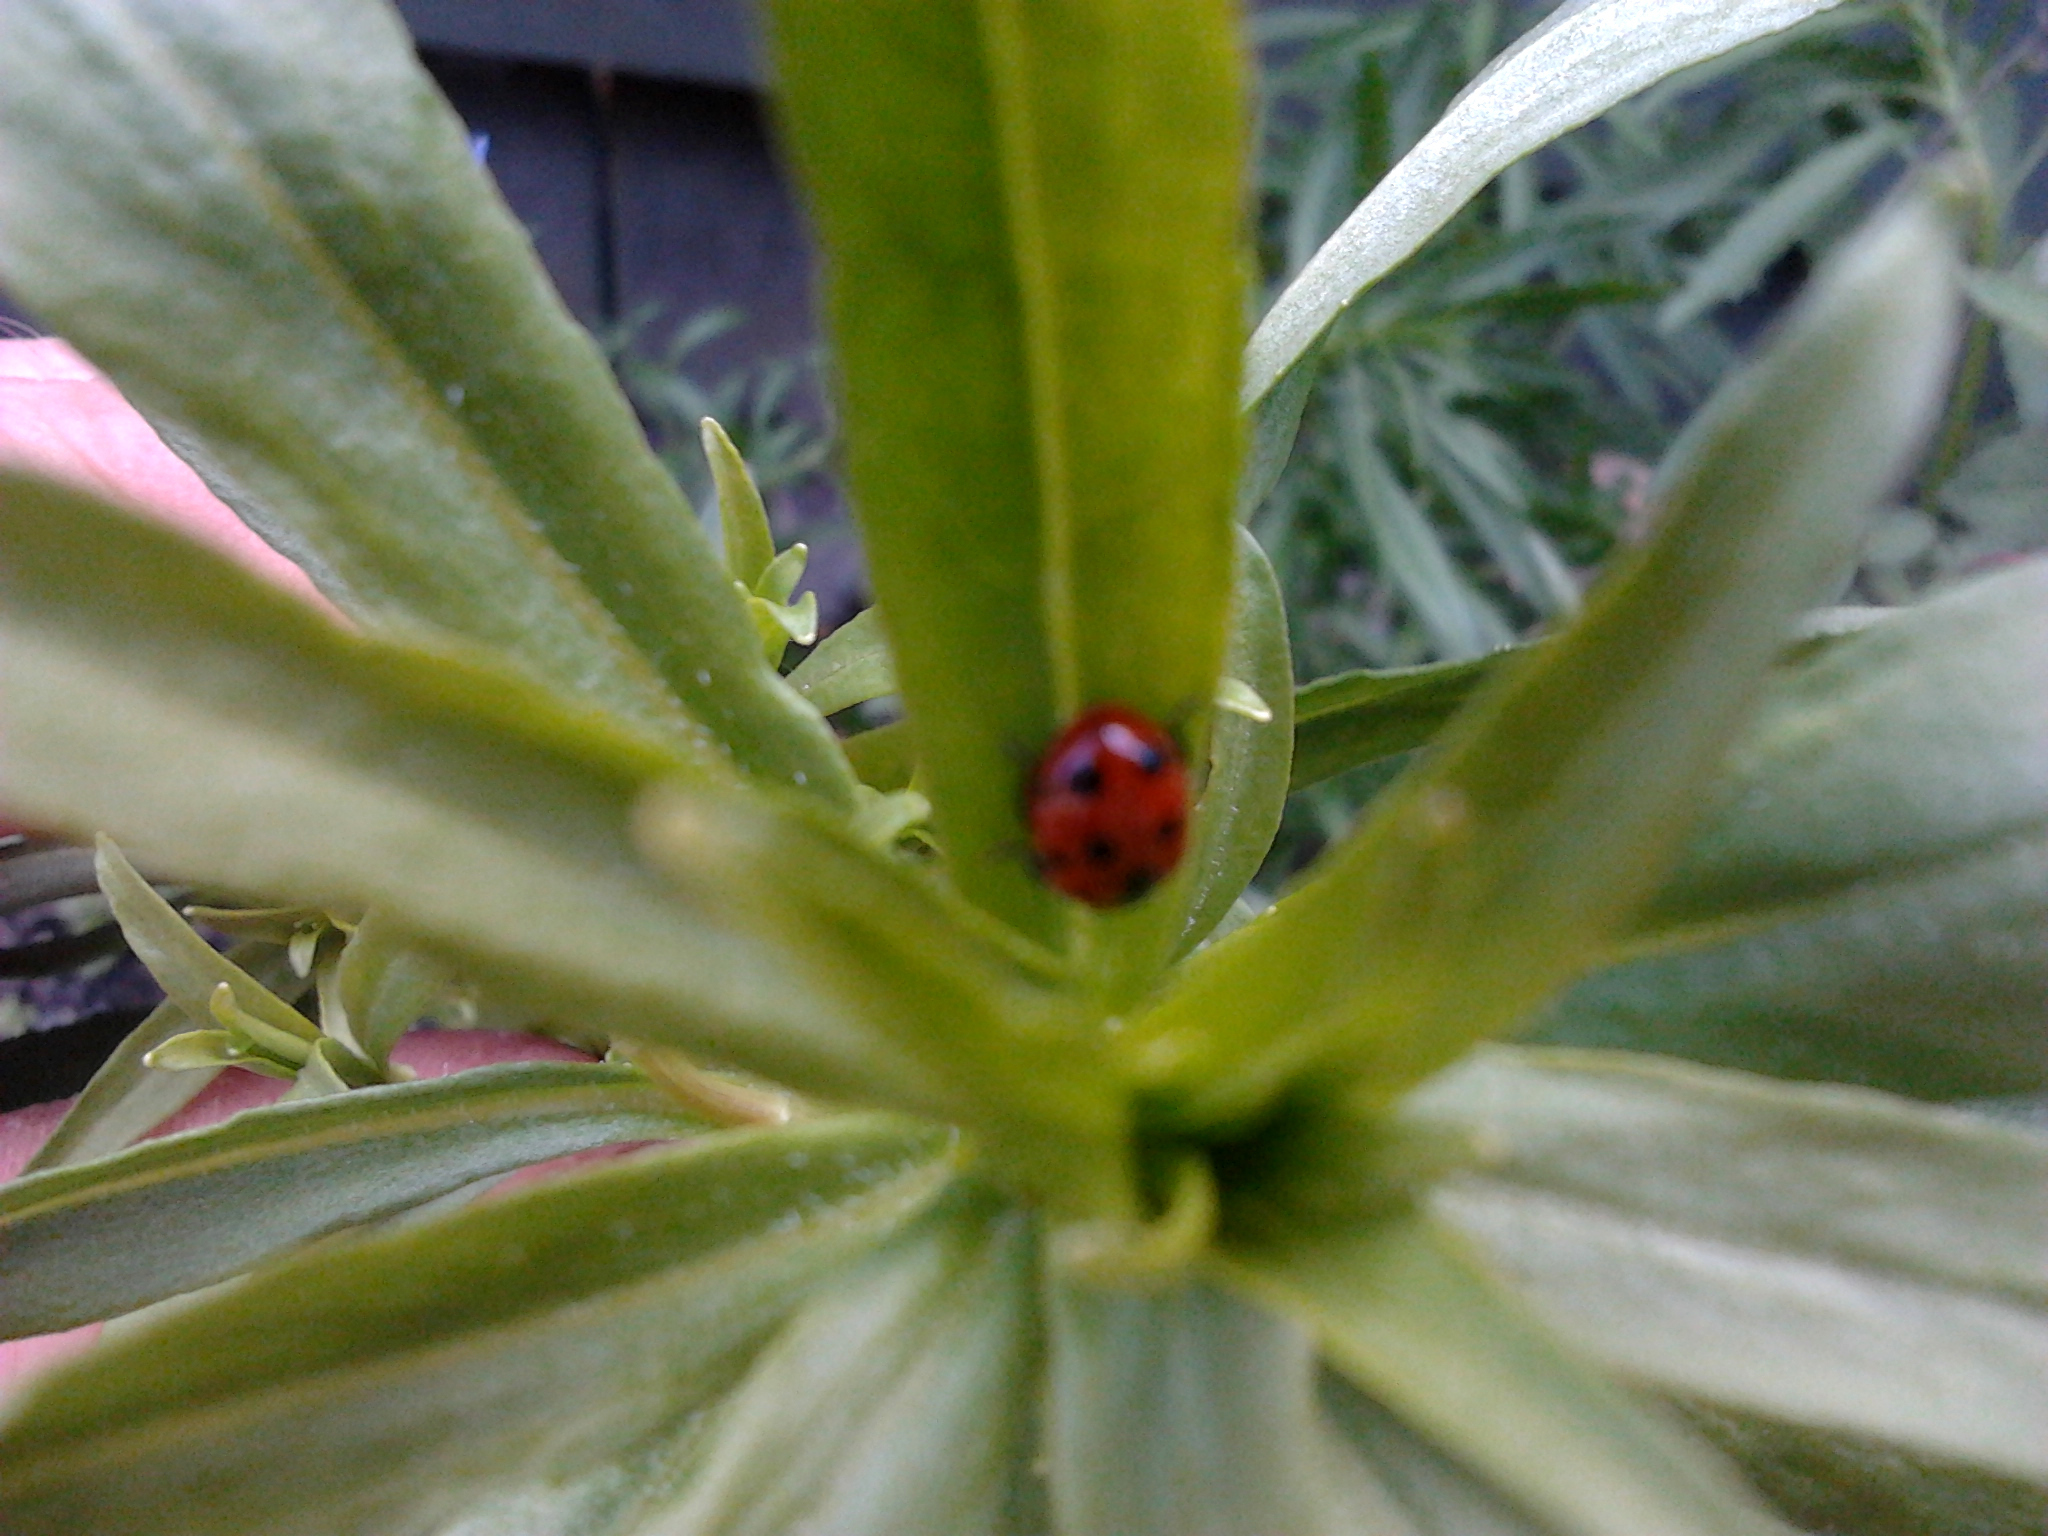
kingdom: Animalia
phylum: Arthropoda
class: Insecta
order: Coleoptera
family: Coccinellidae
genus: Coccinella
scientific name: Coccinella undecimpunctata
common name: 11-spot ladybird
